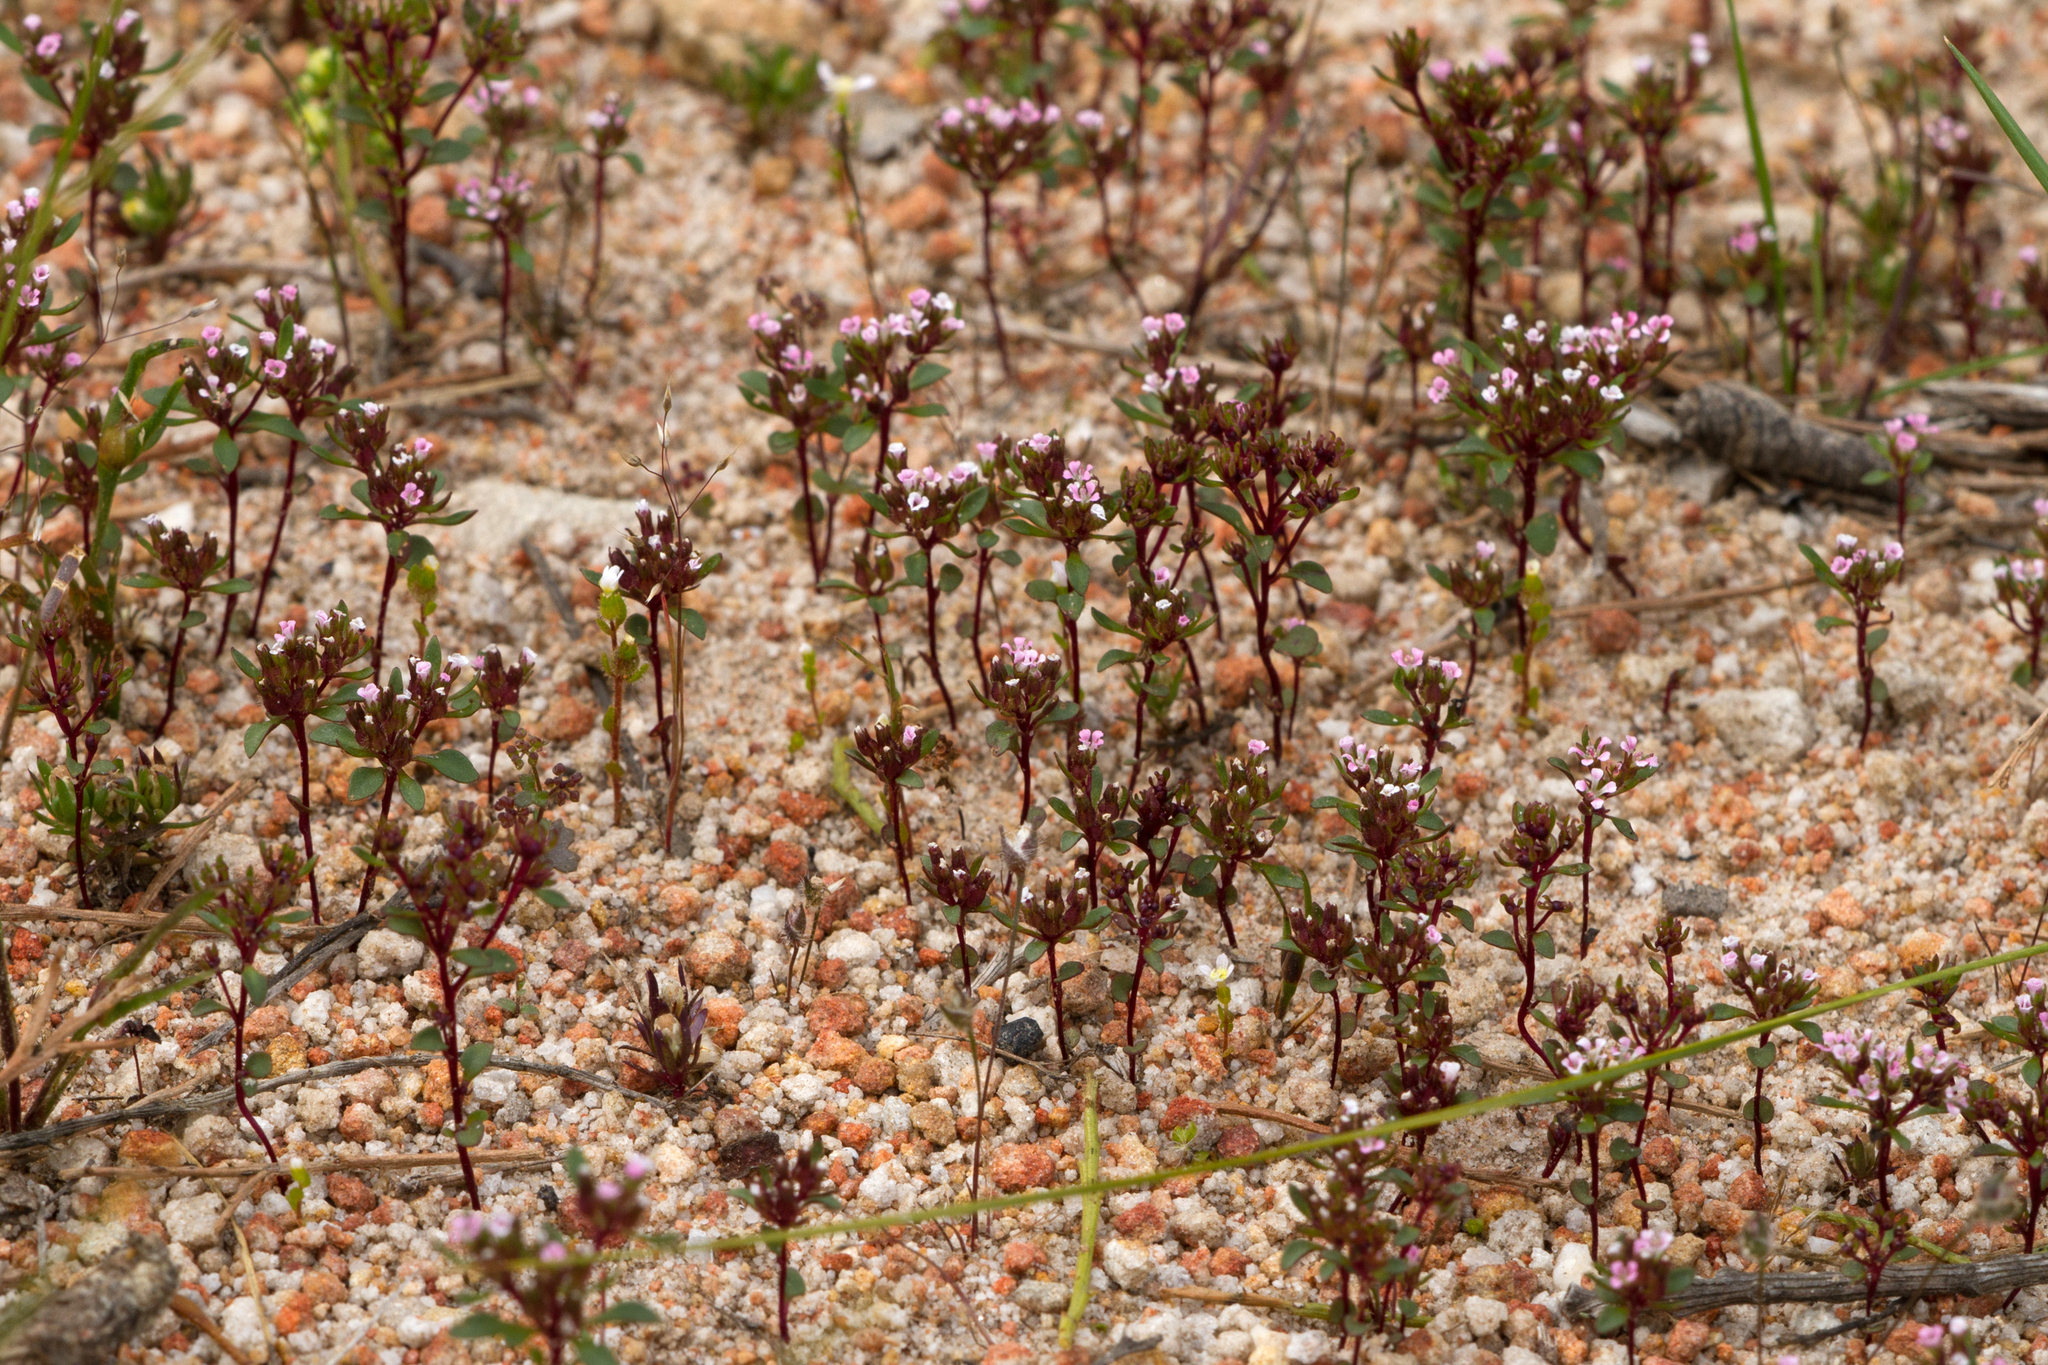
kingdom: Plantae
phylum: Tracheophyta
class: Magnoliopsida
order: Asterales
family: Stylidiaceae
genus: Levenhookia
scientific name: Levenhookia pusilla
